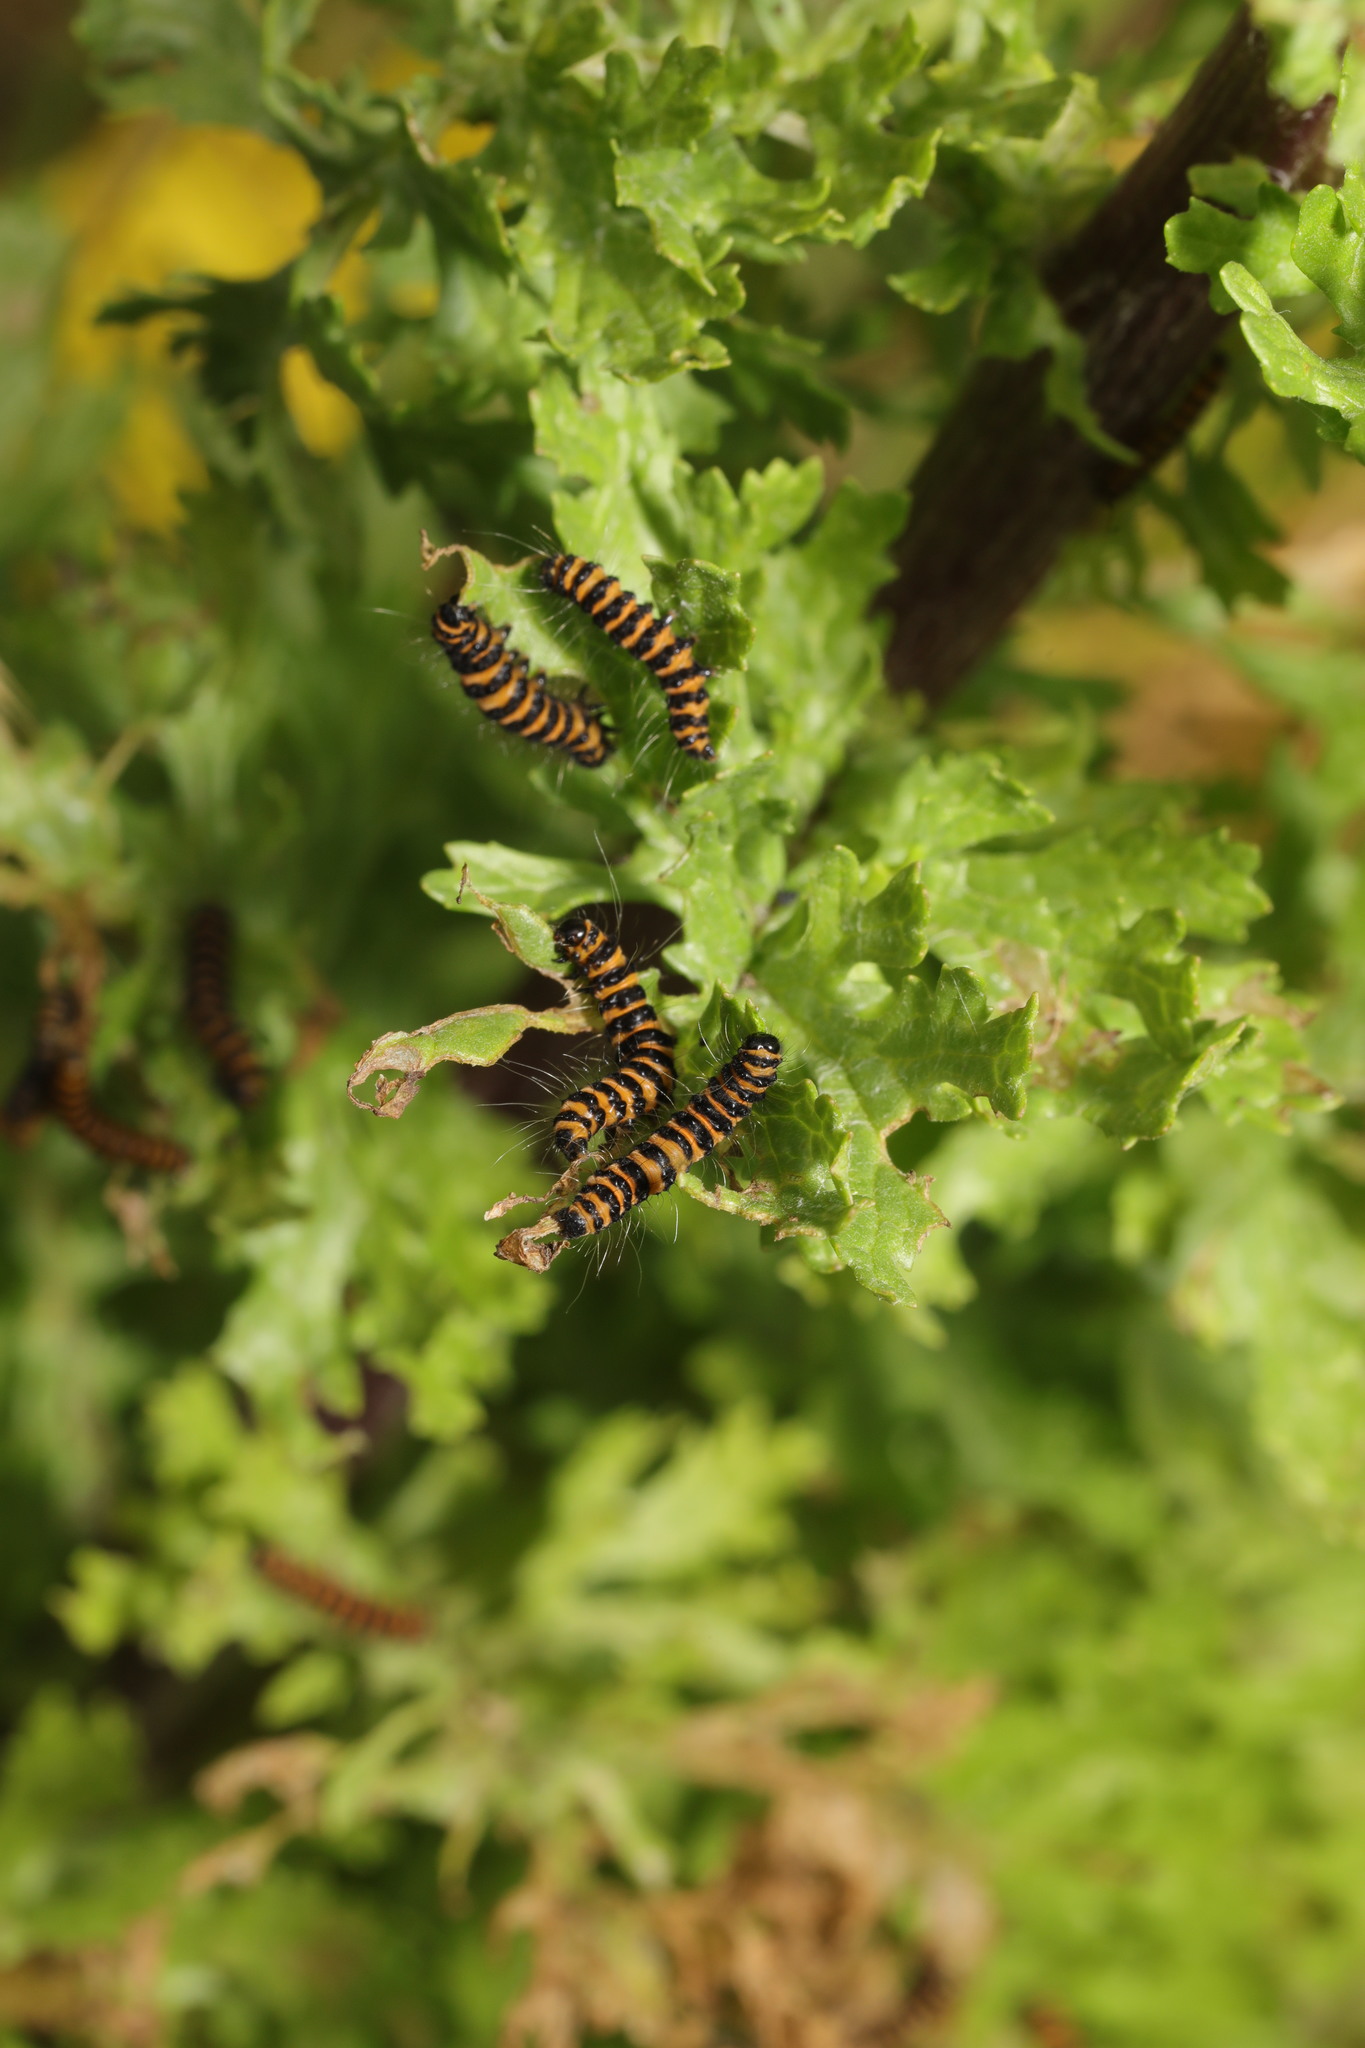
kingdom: Animalia
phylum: Arthropoda
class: Insecta
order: Lepidoptera
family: Erebidae
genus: Tyria
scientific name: Tyria jacobaeae
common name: Cinnabar
